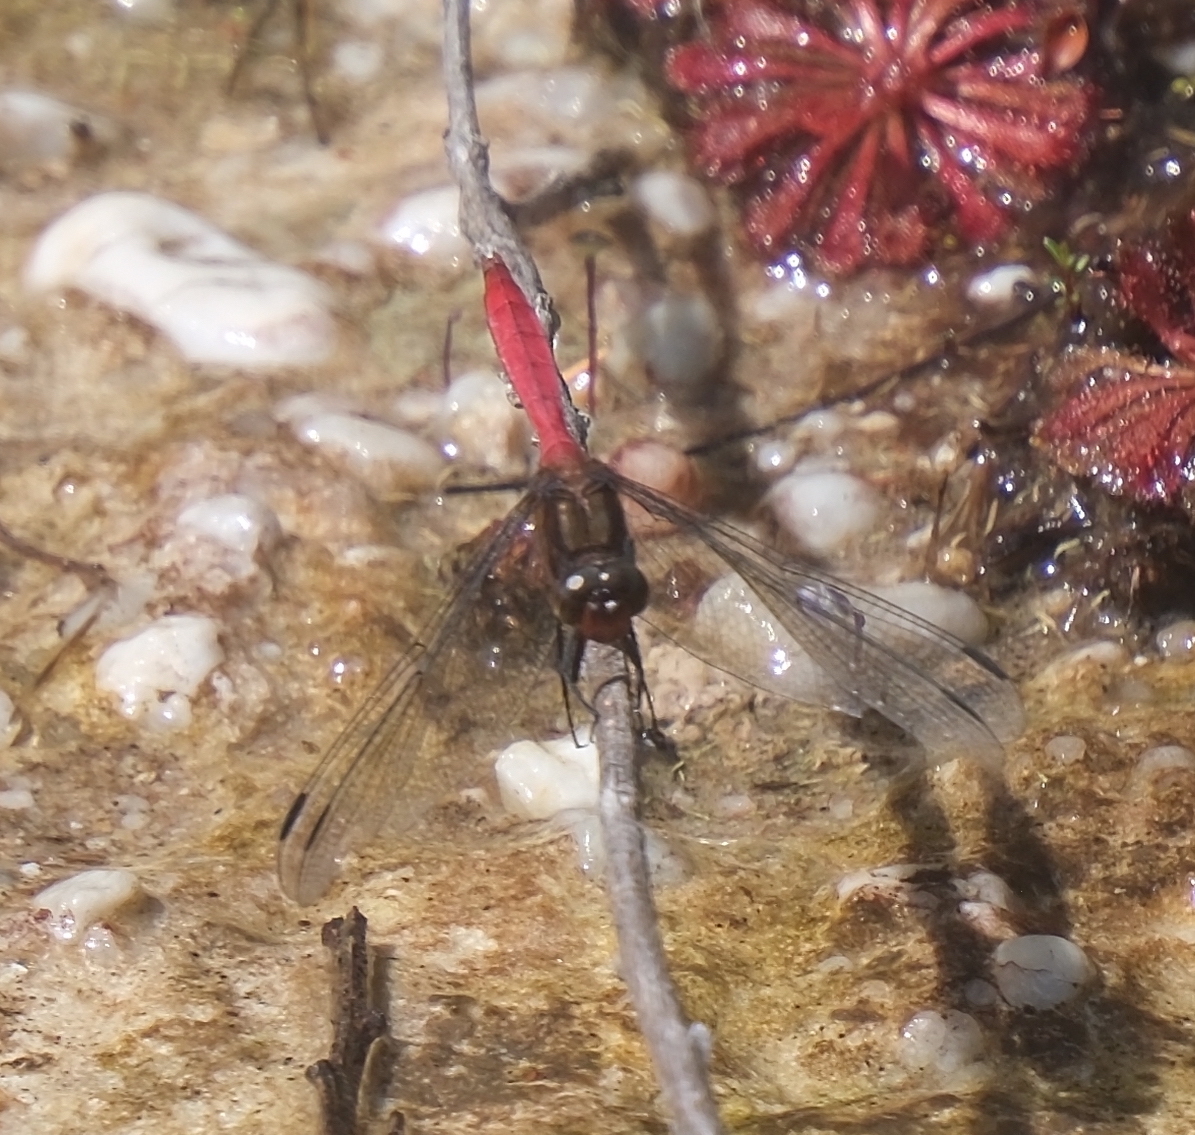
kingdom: Animalia
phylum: Arthropoda
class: Insecta
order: Odonata
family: Libellulidae
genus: Orthetrum
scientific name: Orthetrum villosovittatum
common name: Firery skimmer
